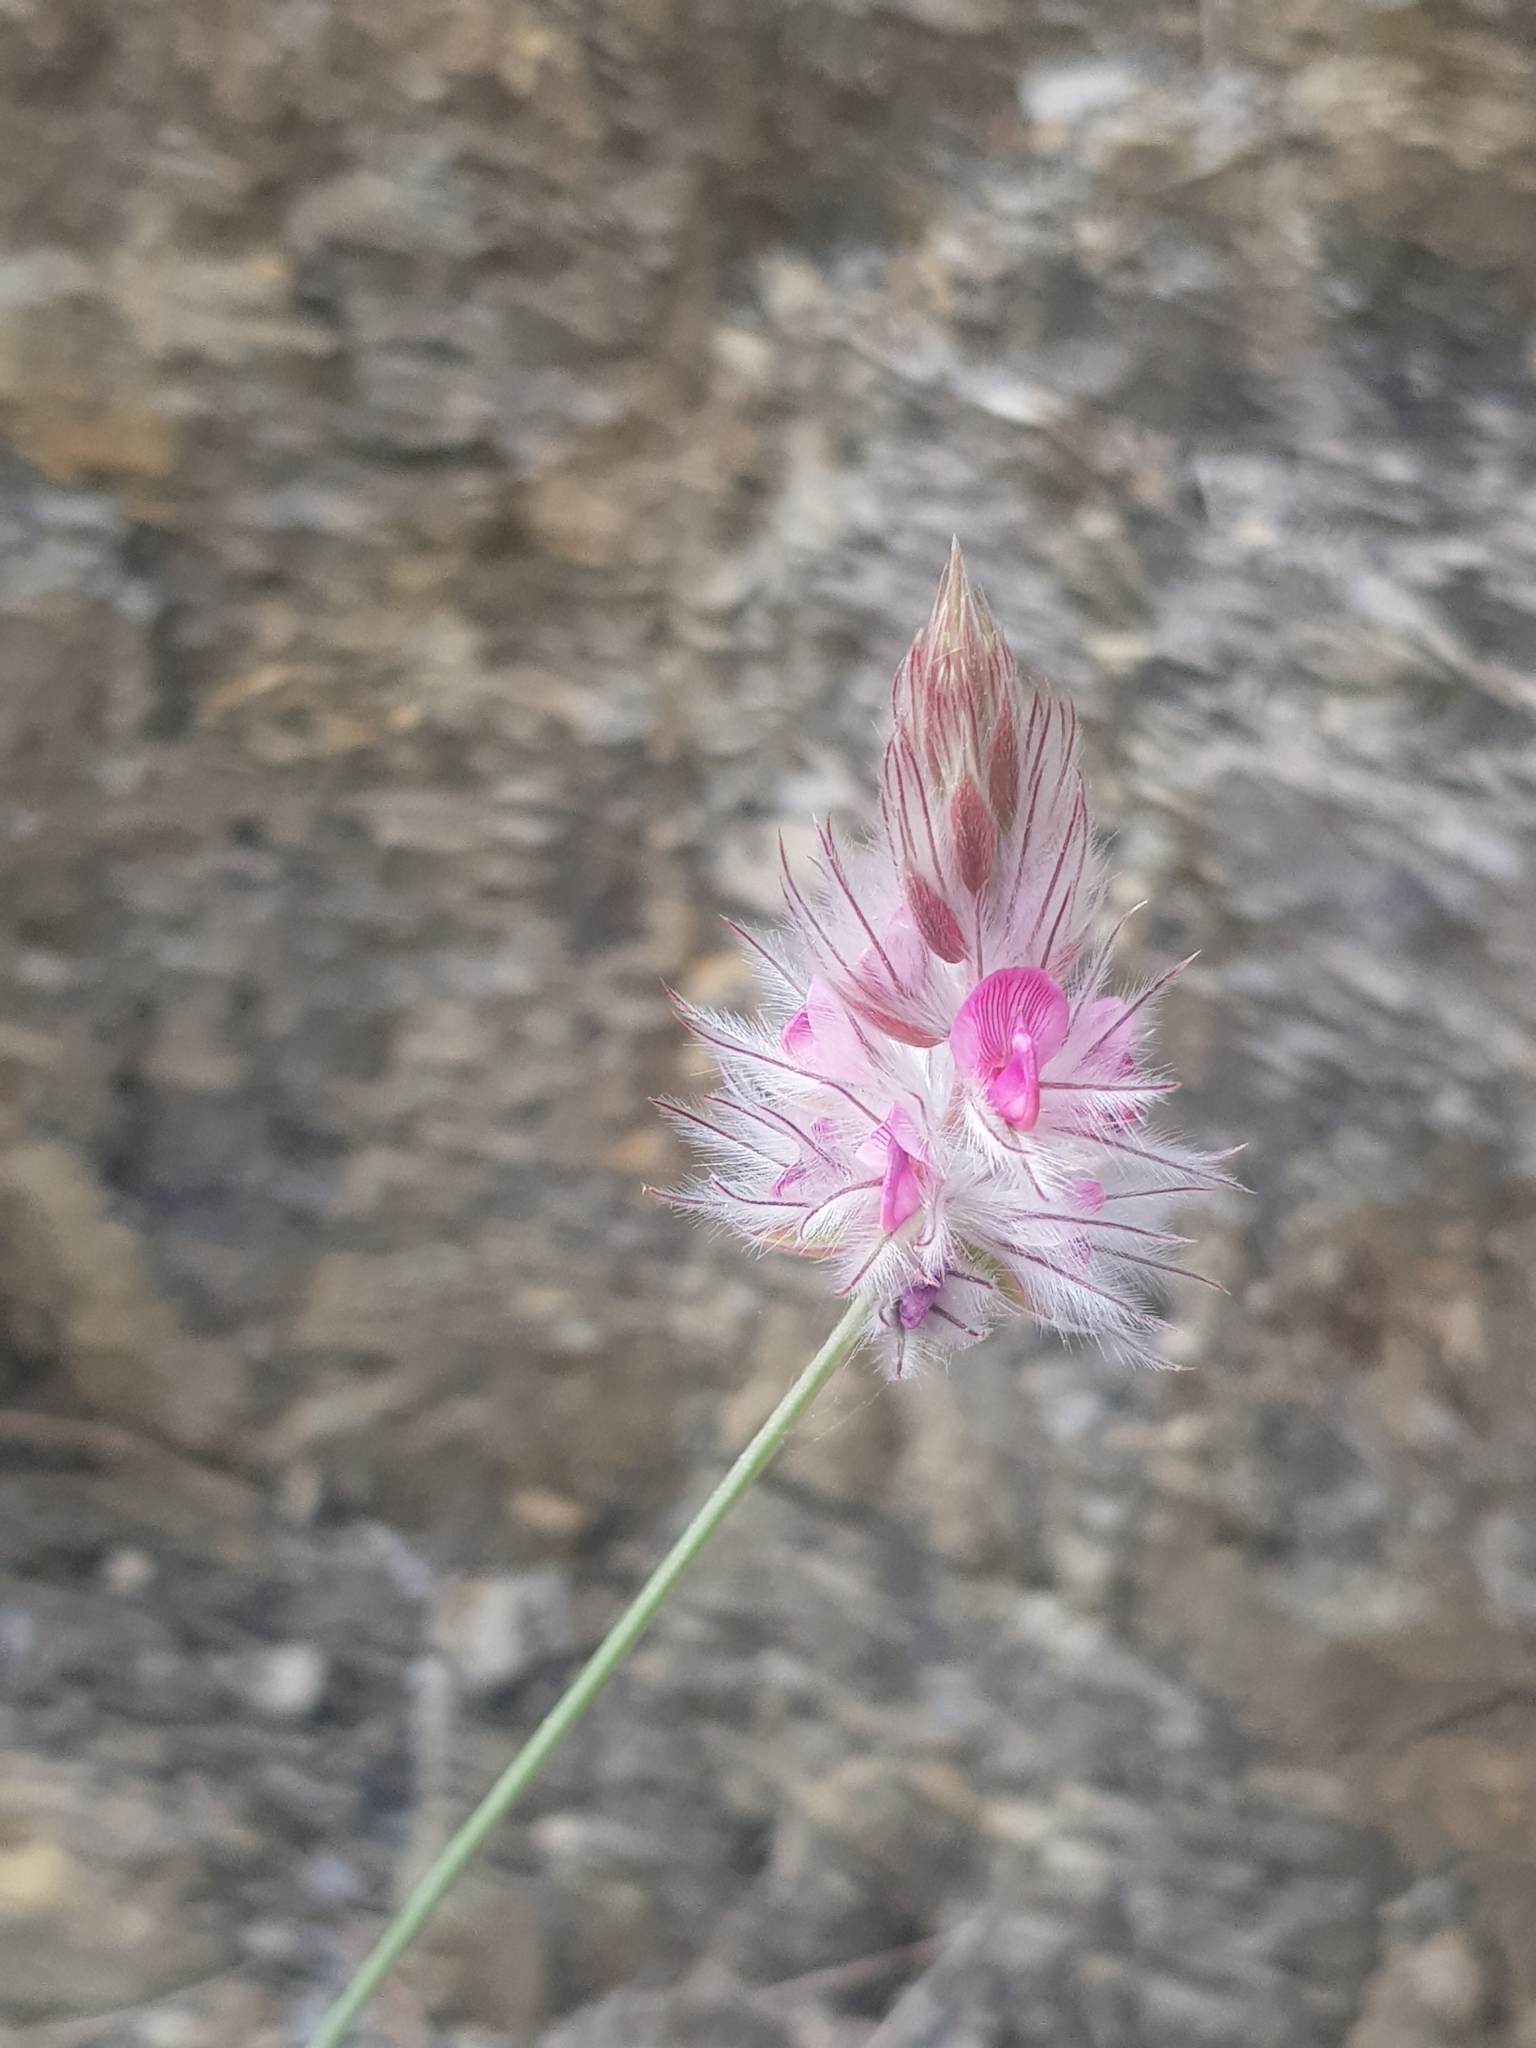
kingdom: Plantae
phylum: Tracheophyta
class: Magnoliopsida
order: Fabales
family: Fabaceae
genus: Ebenus
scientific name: Ebenus pinnata
